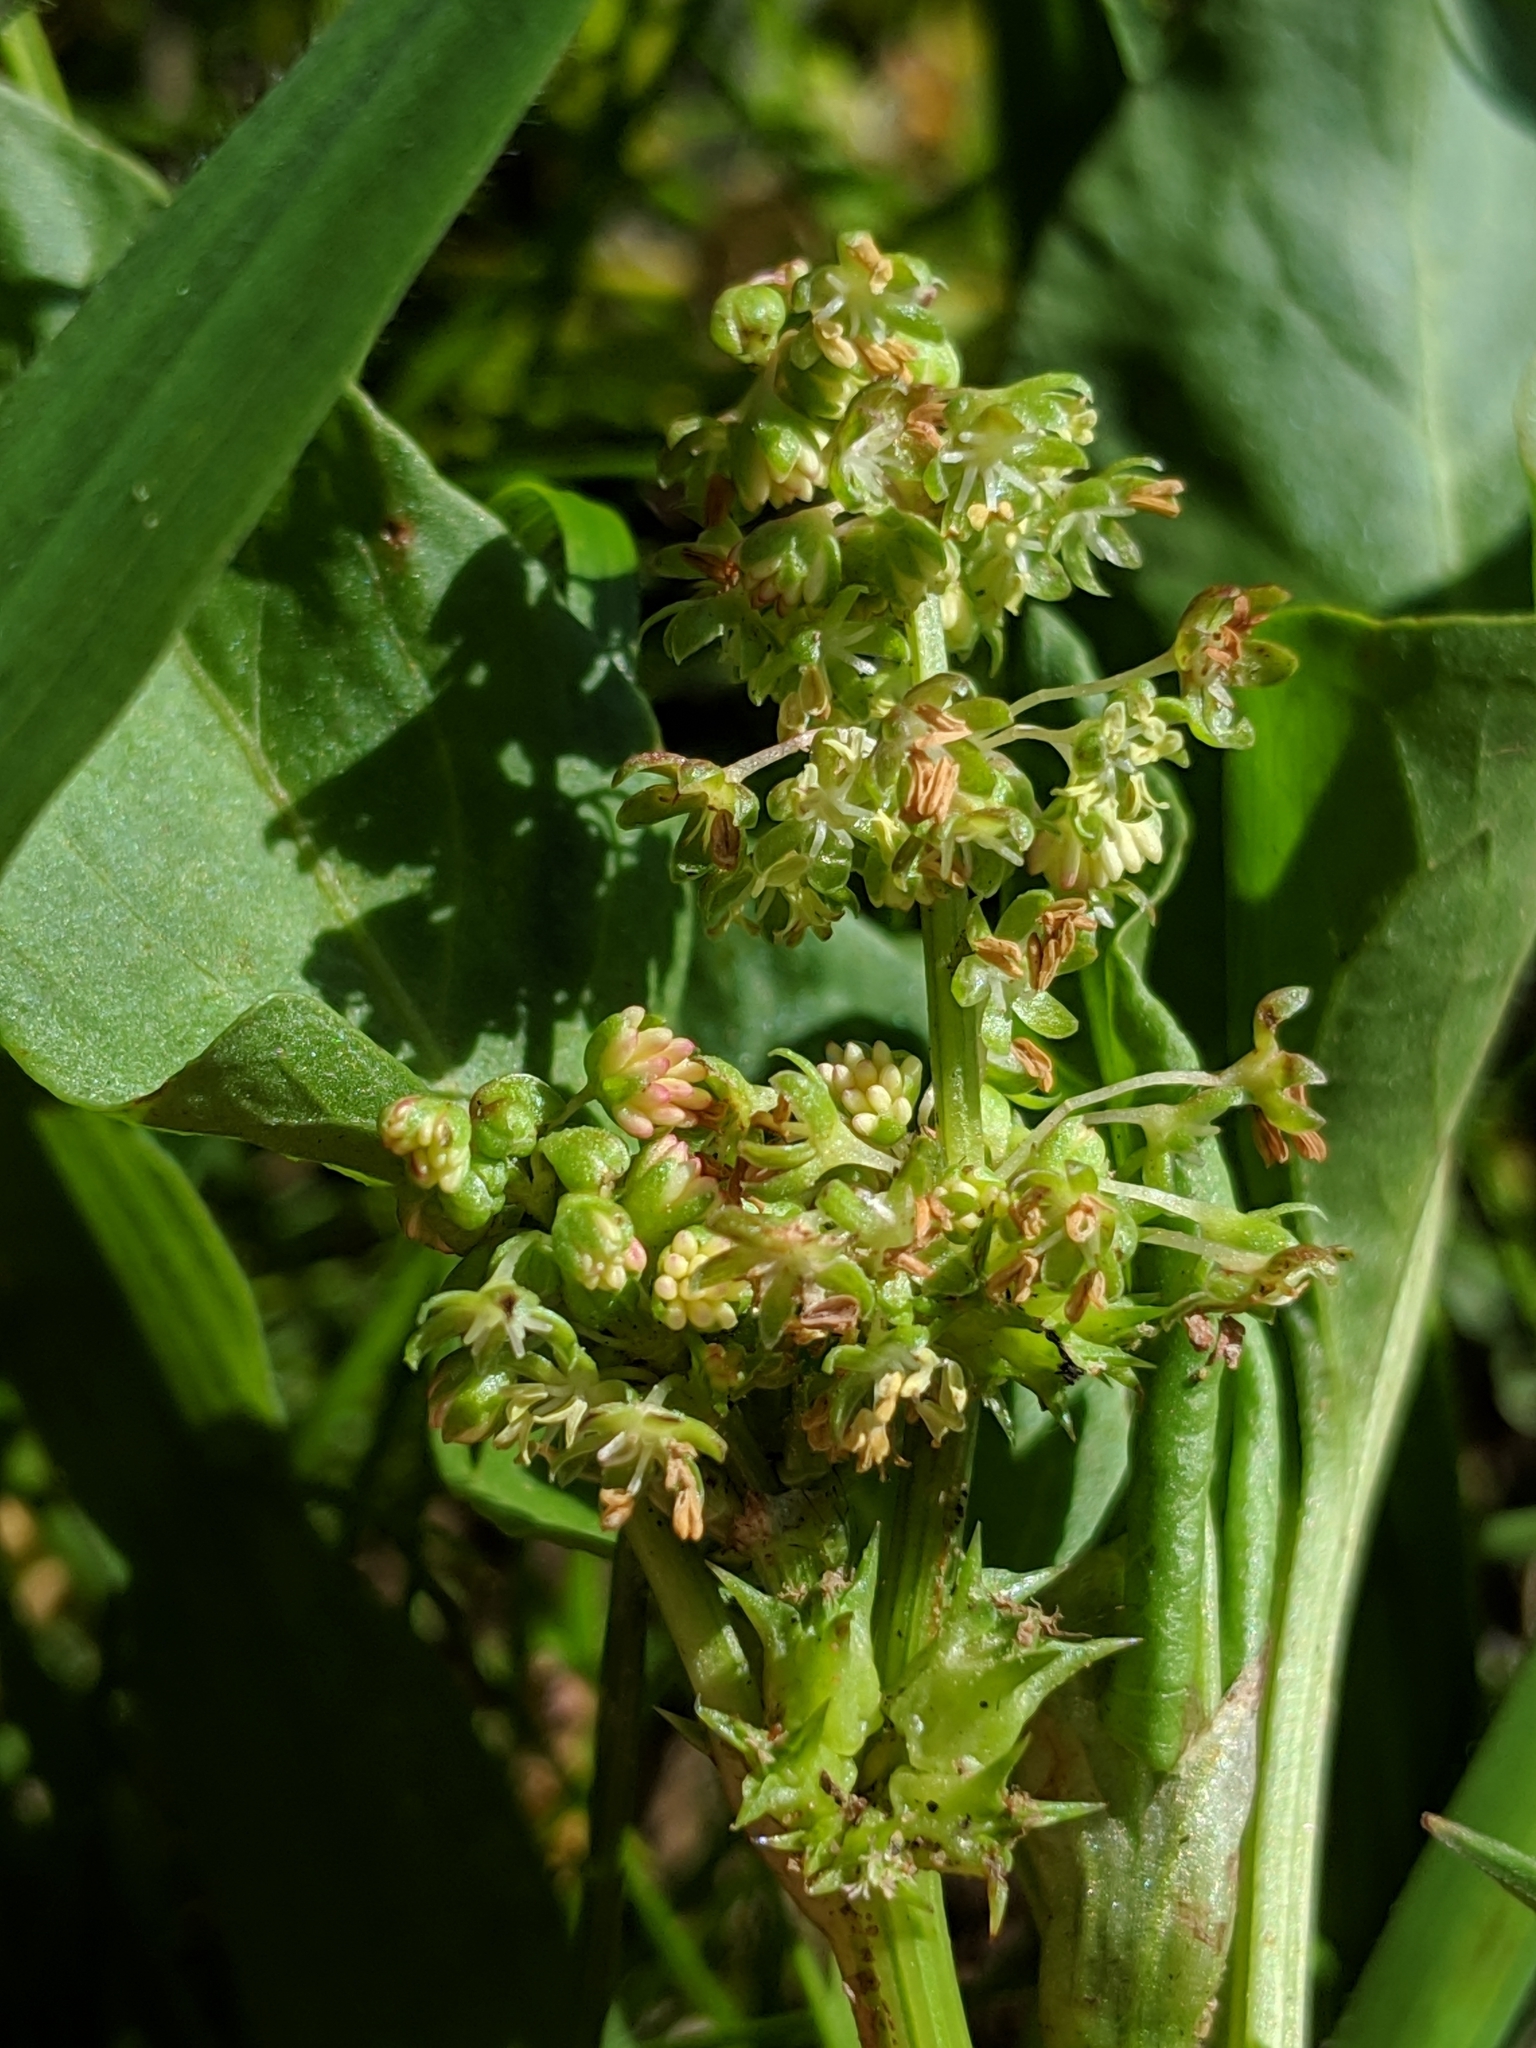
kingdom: Plantae
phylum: Tracheophyta
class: Magnoliopsida
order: Caryophyllales
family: Polygonaceae
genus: Rumex
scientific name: Rumex spinosus
